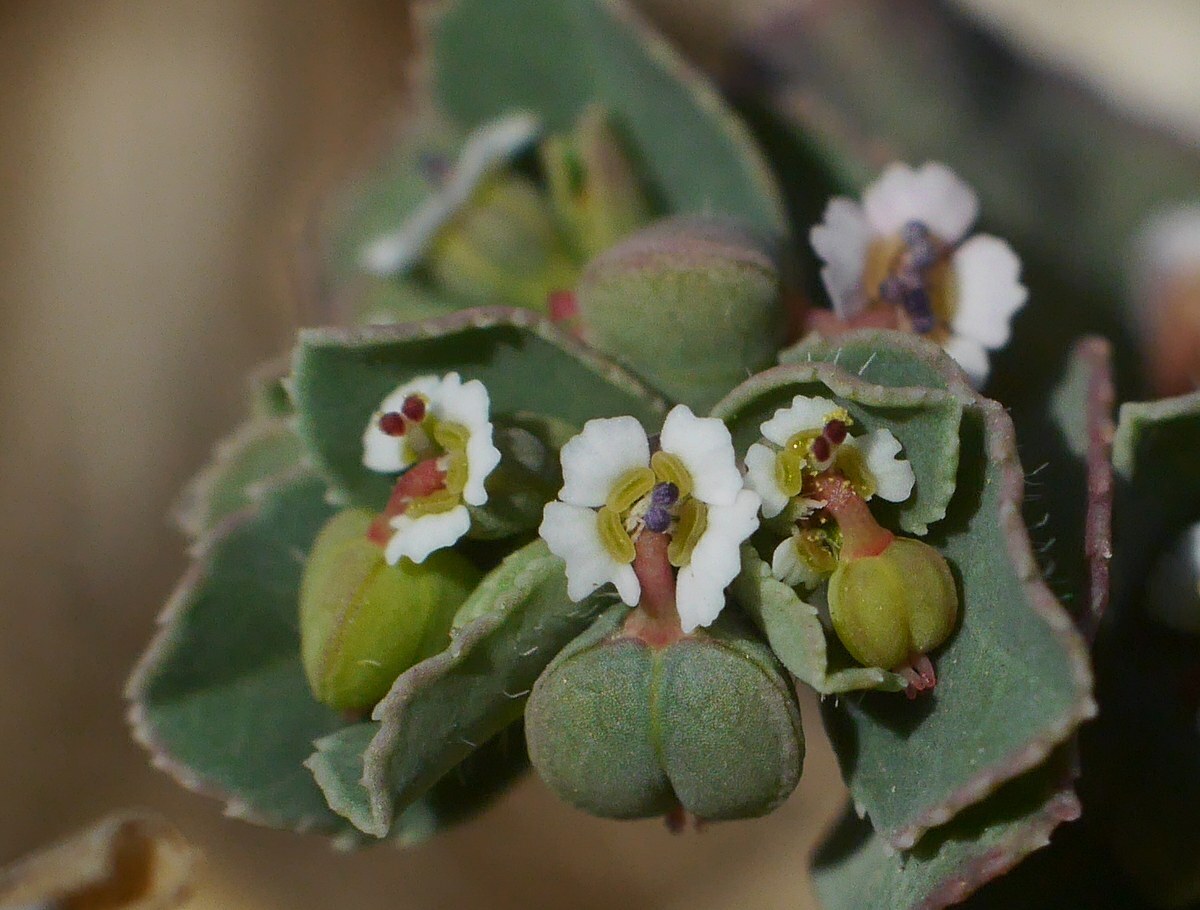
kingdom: Plantae
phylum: Tracheophyta
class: Magnoliopsida
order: Malpighiales
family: Euphorbiaceae
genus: Euphorbia
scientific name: Euphorbia chamaesyce
